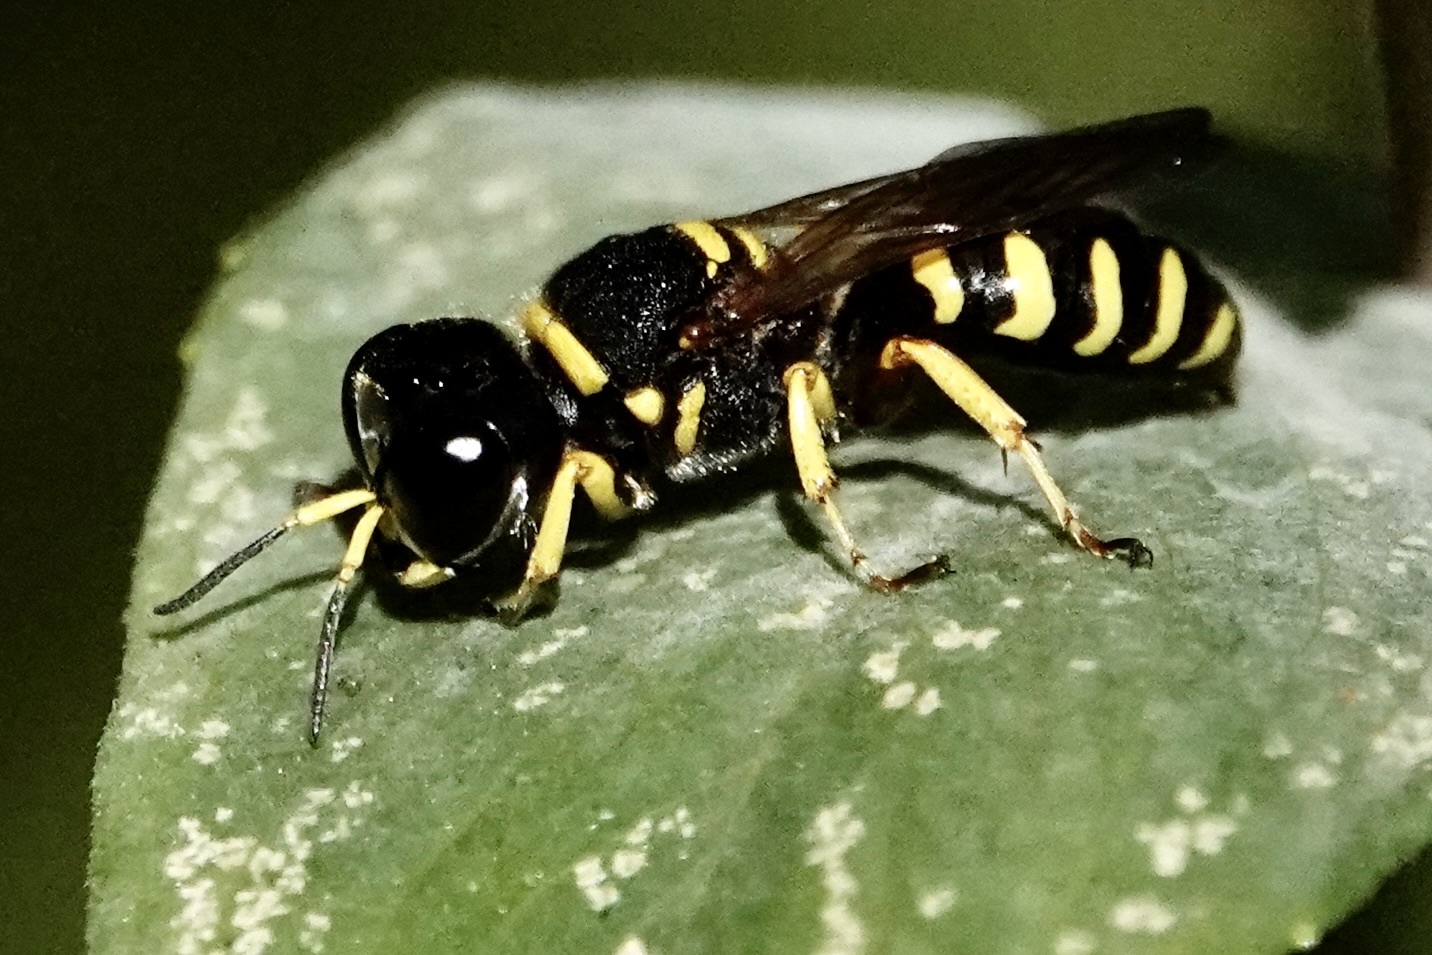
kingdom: Animalia
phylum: Arthropoda
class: Insecta
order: Hymenoptera
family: Crabronidae
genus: Ectemnius
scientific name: Ectemnius decemmaculatus
